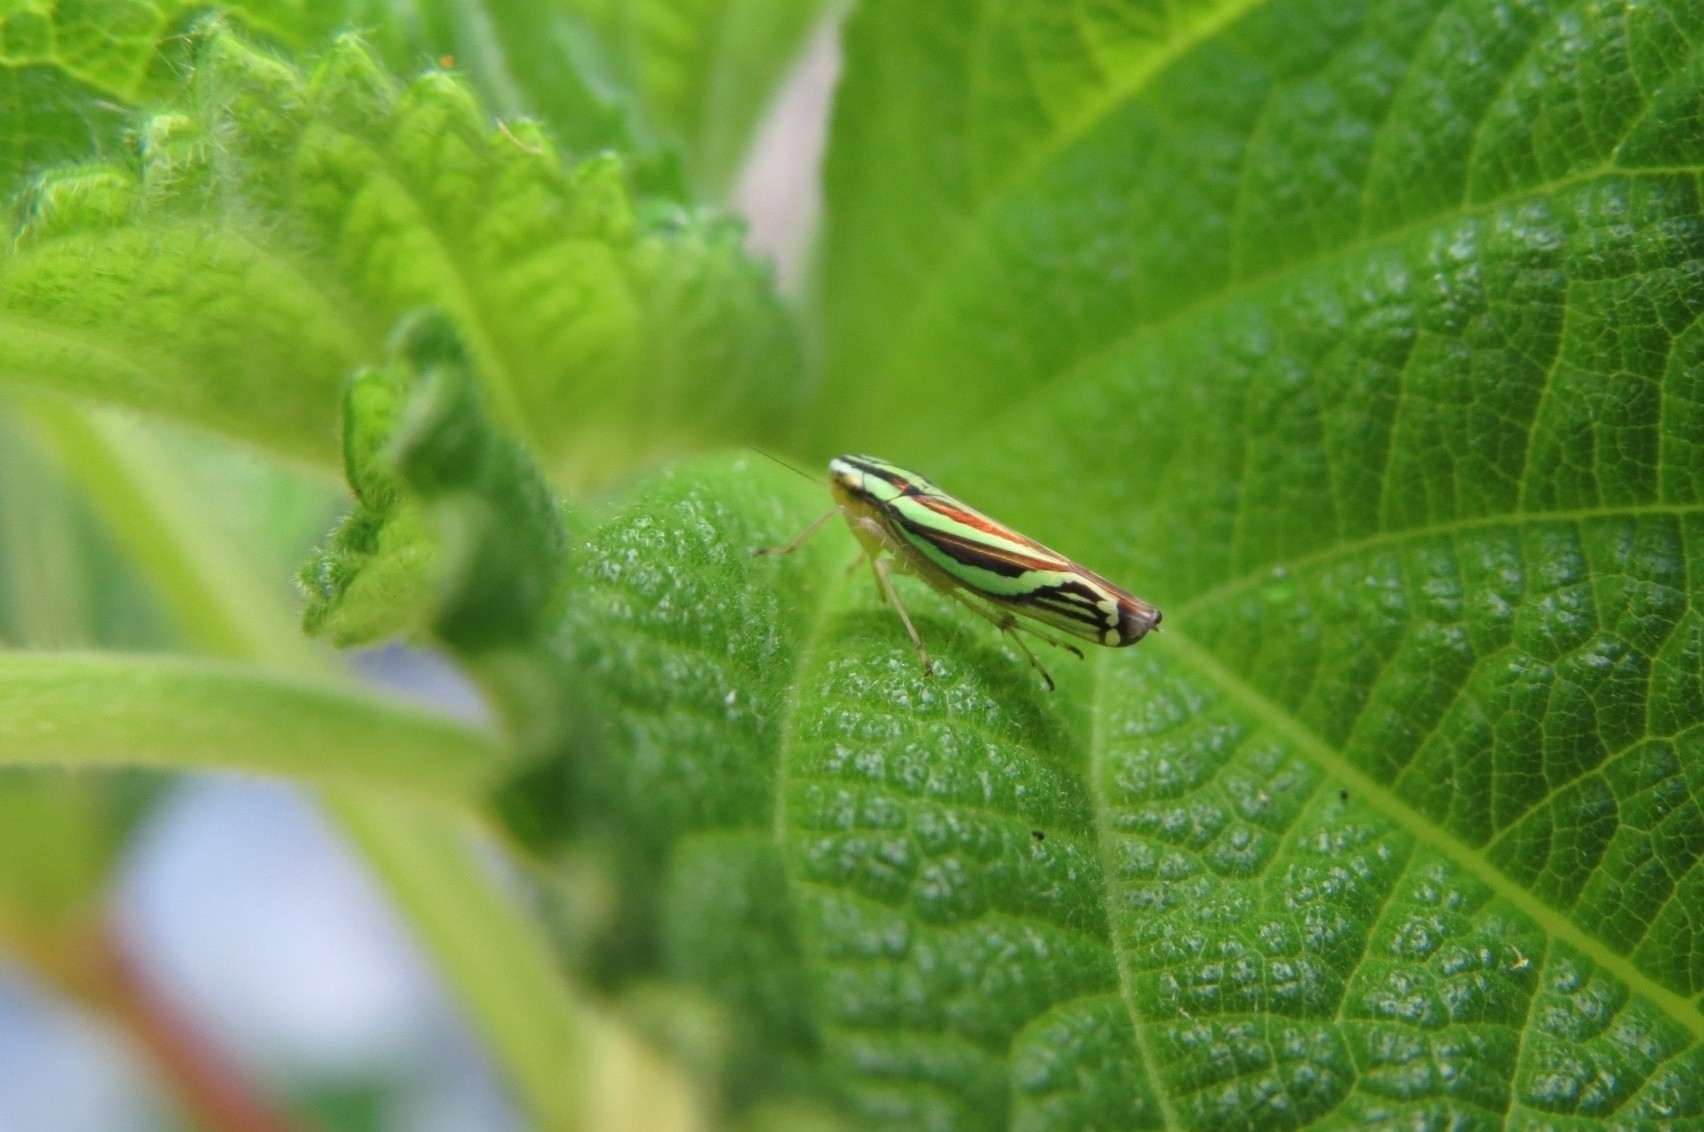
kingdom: Animalia
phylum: Arthropoda
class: Insecta
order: Hemiptera
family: Cicadellidae
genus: Sibovia
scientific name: Sibovia sagata
